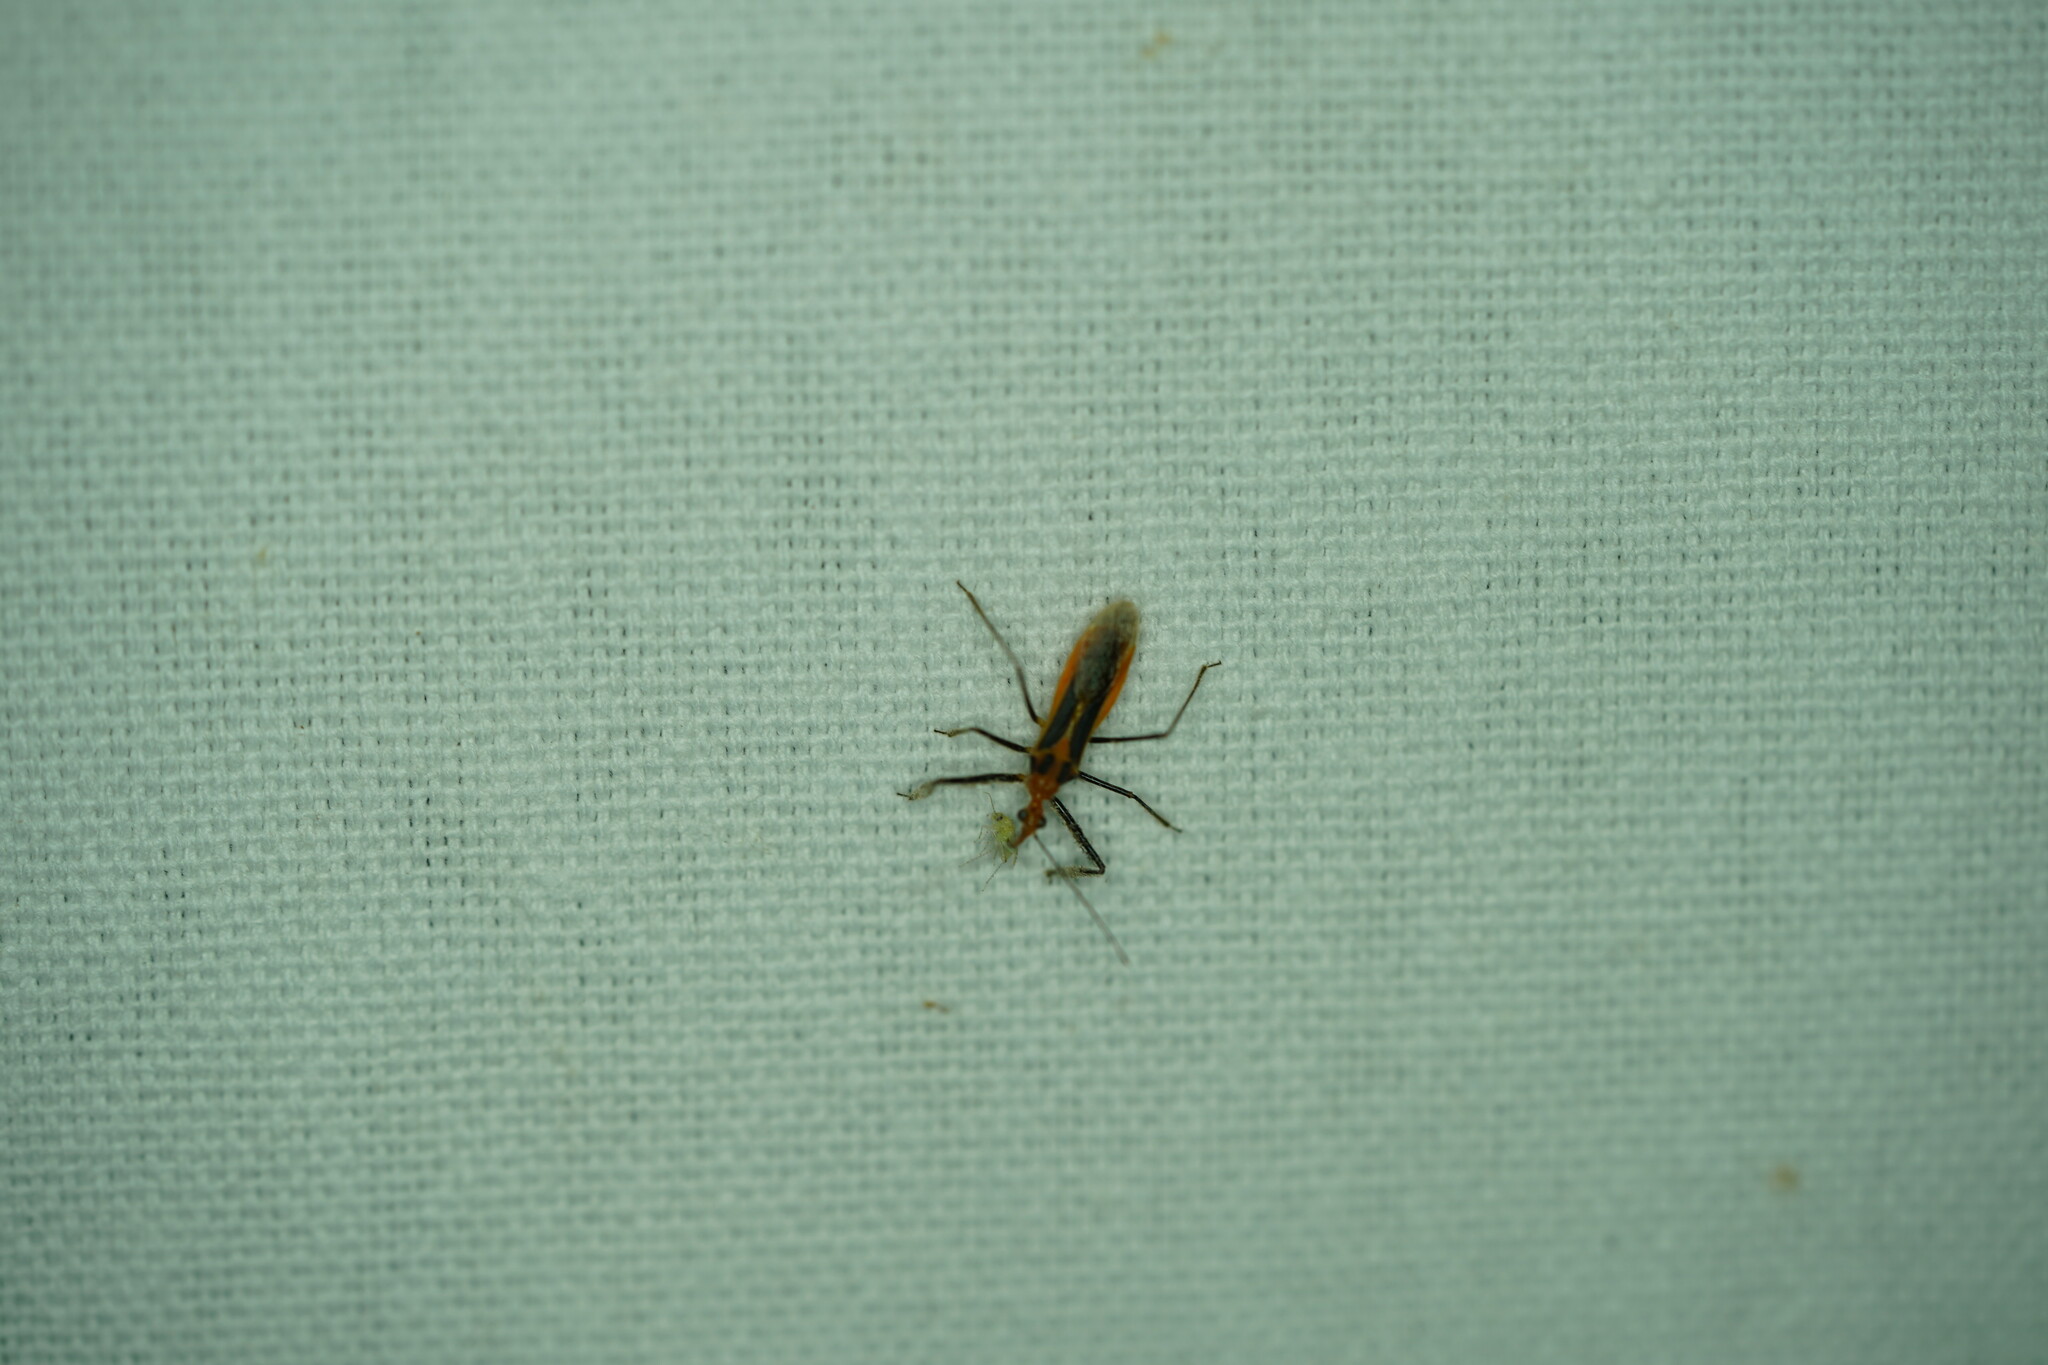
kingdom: Animalia
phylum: Arthropoda
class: Insecta
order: Hemiptera
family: Reduviidae
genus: Repipta
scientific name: Repipta taurus
